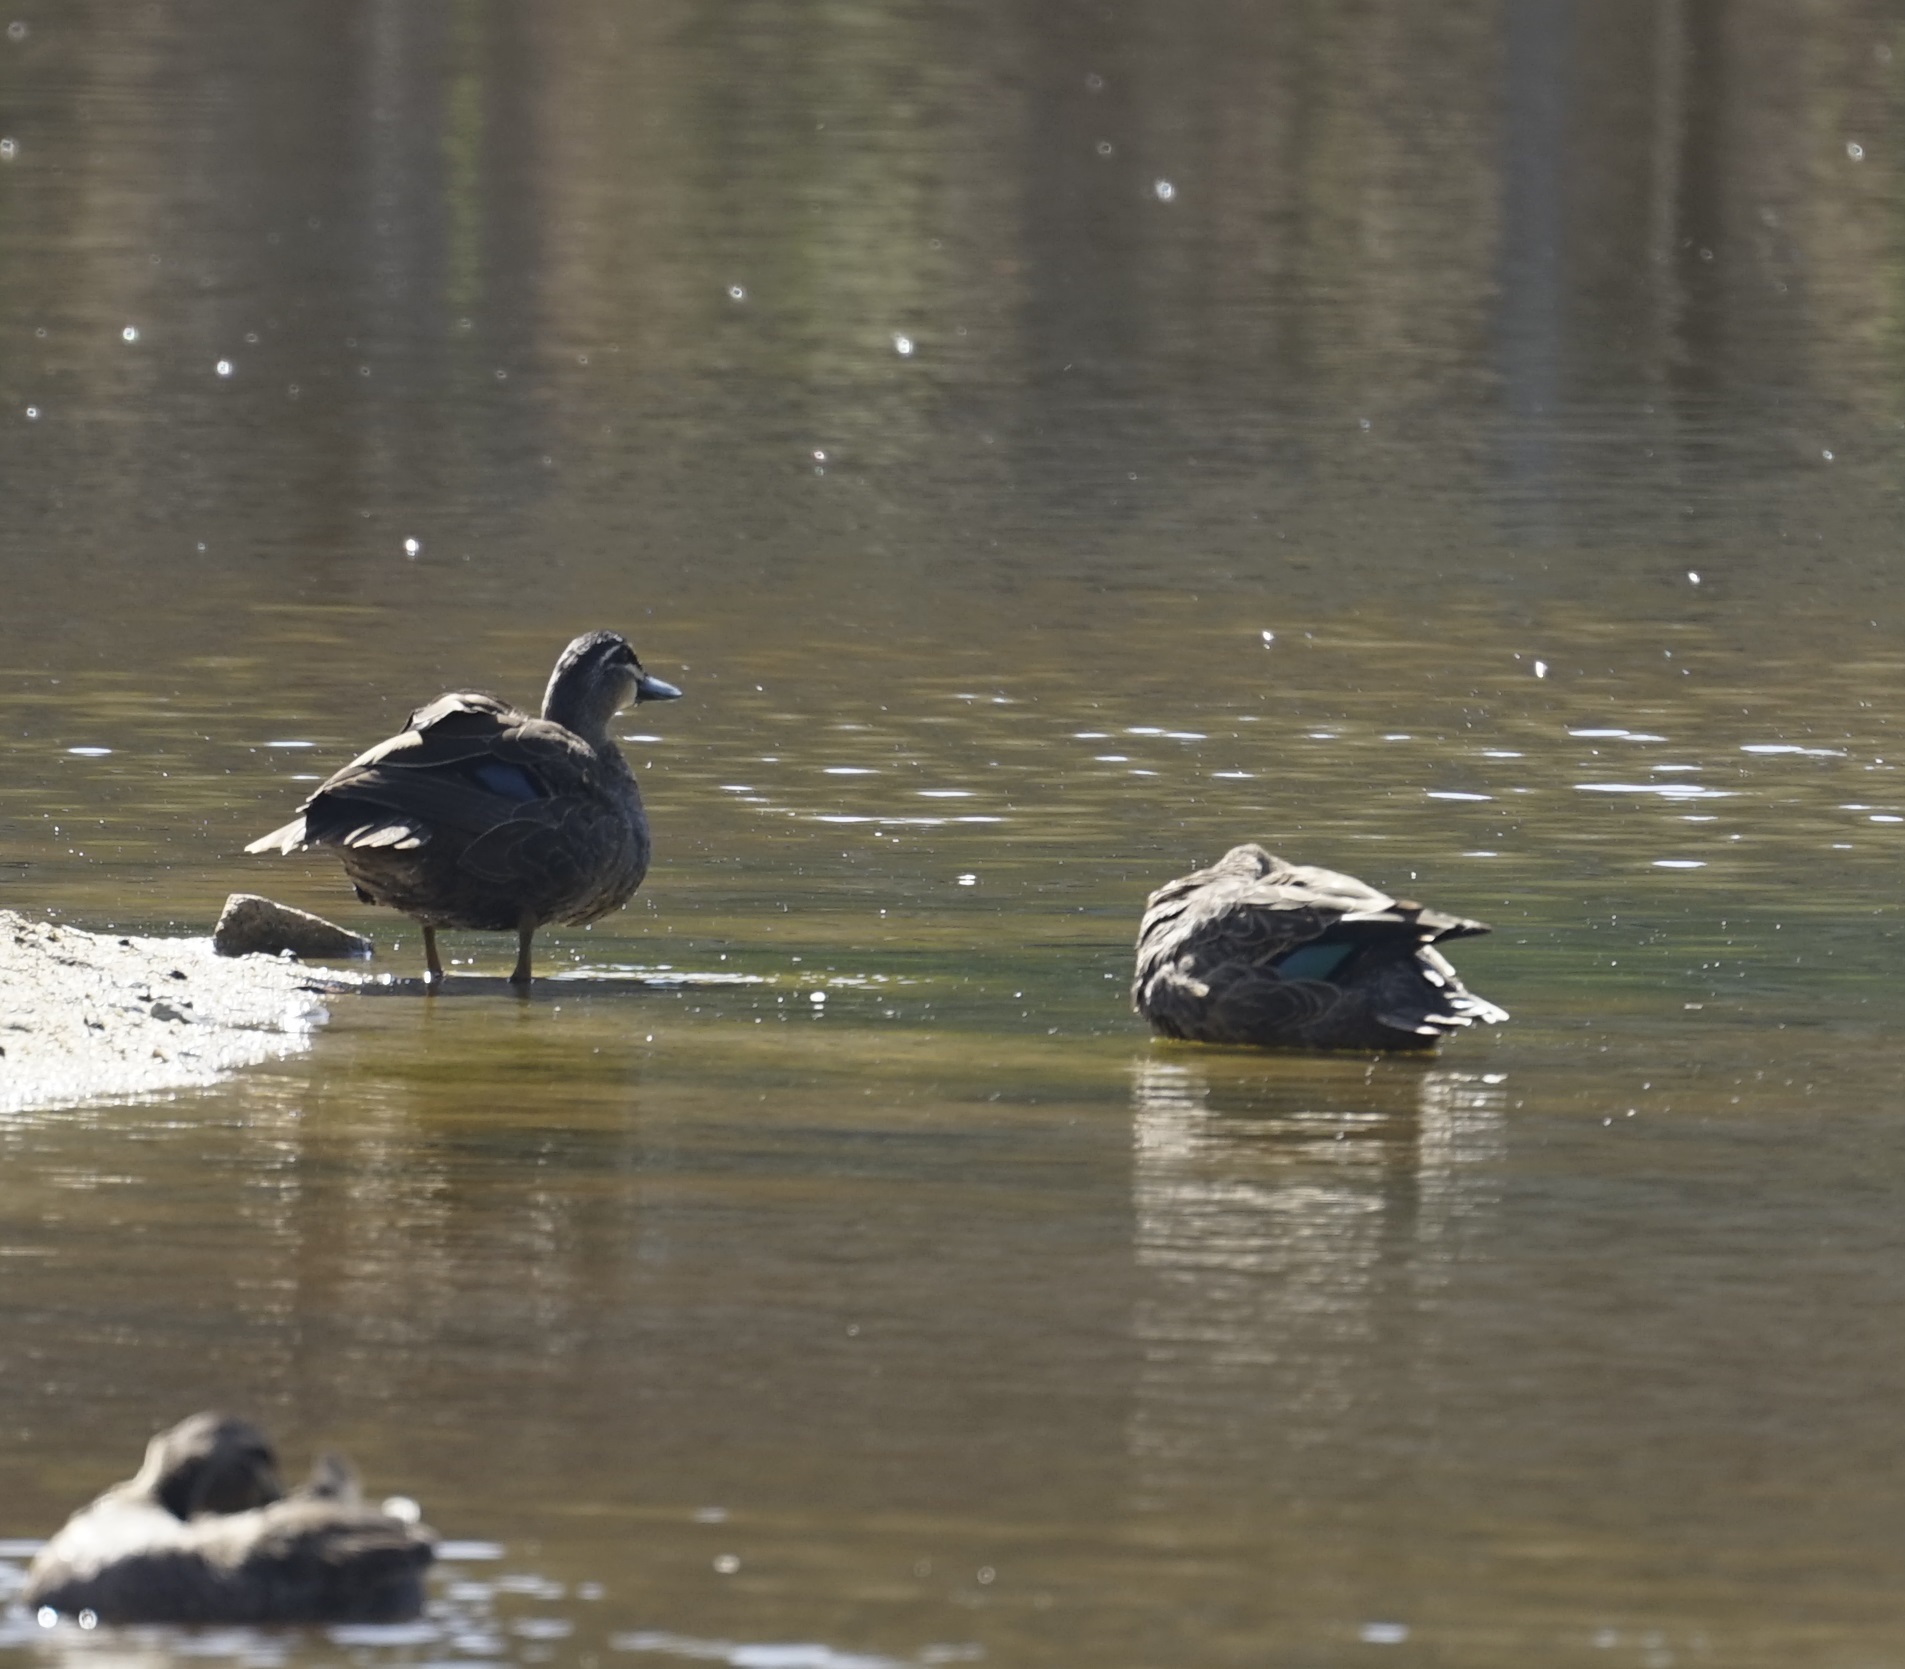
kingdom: Animalia
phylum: Chordata
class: Aves
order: Anseriformes
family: Anatidae
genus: Anas
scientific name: Anas superciliosa
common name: Pacific black duck
